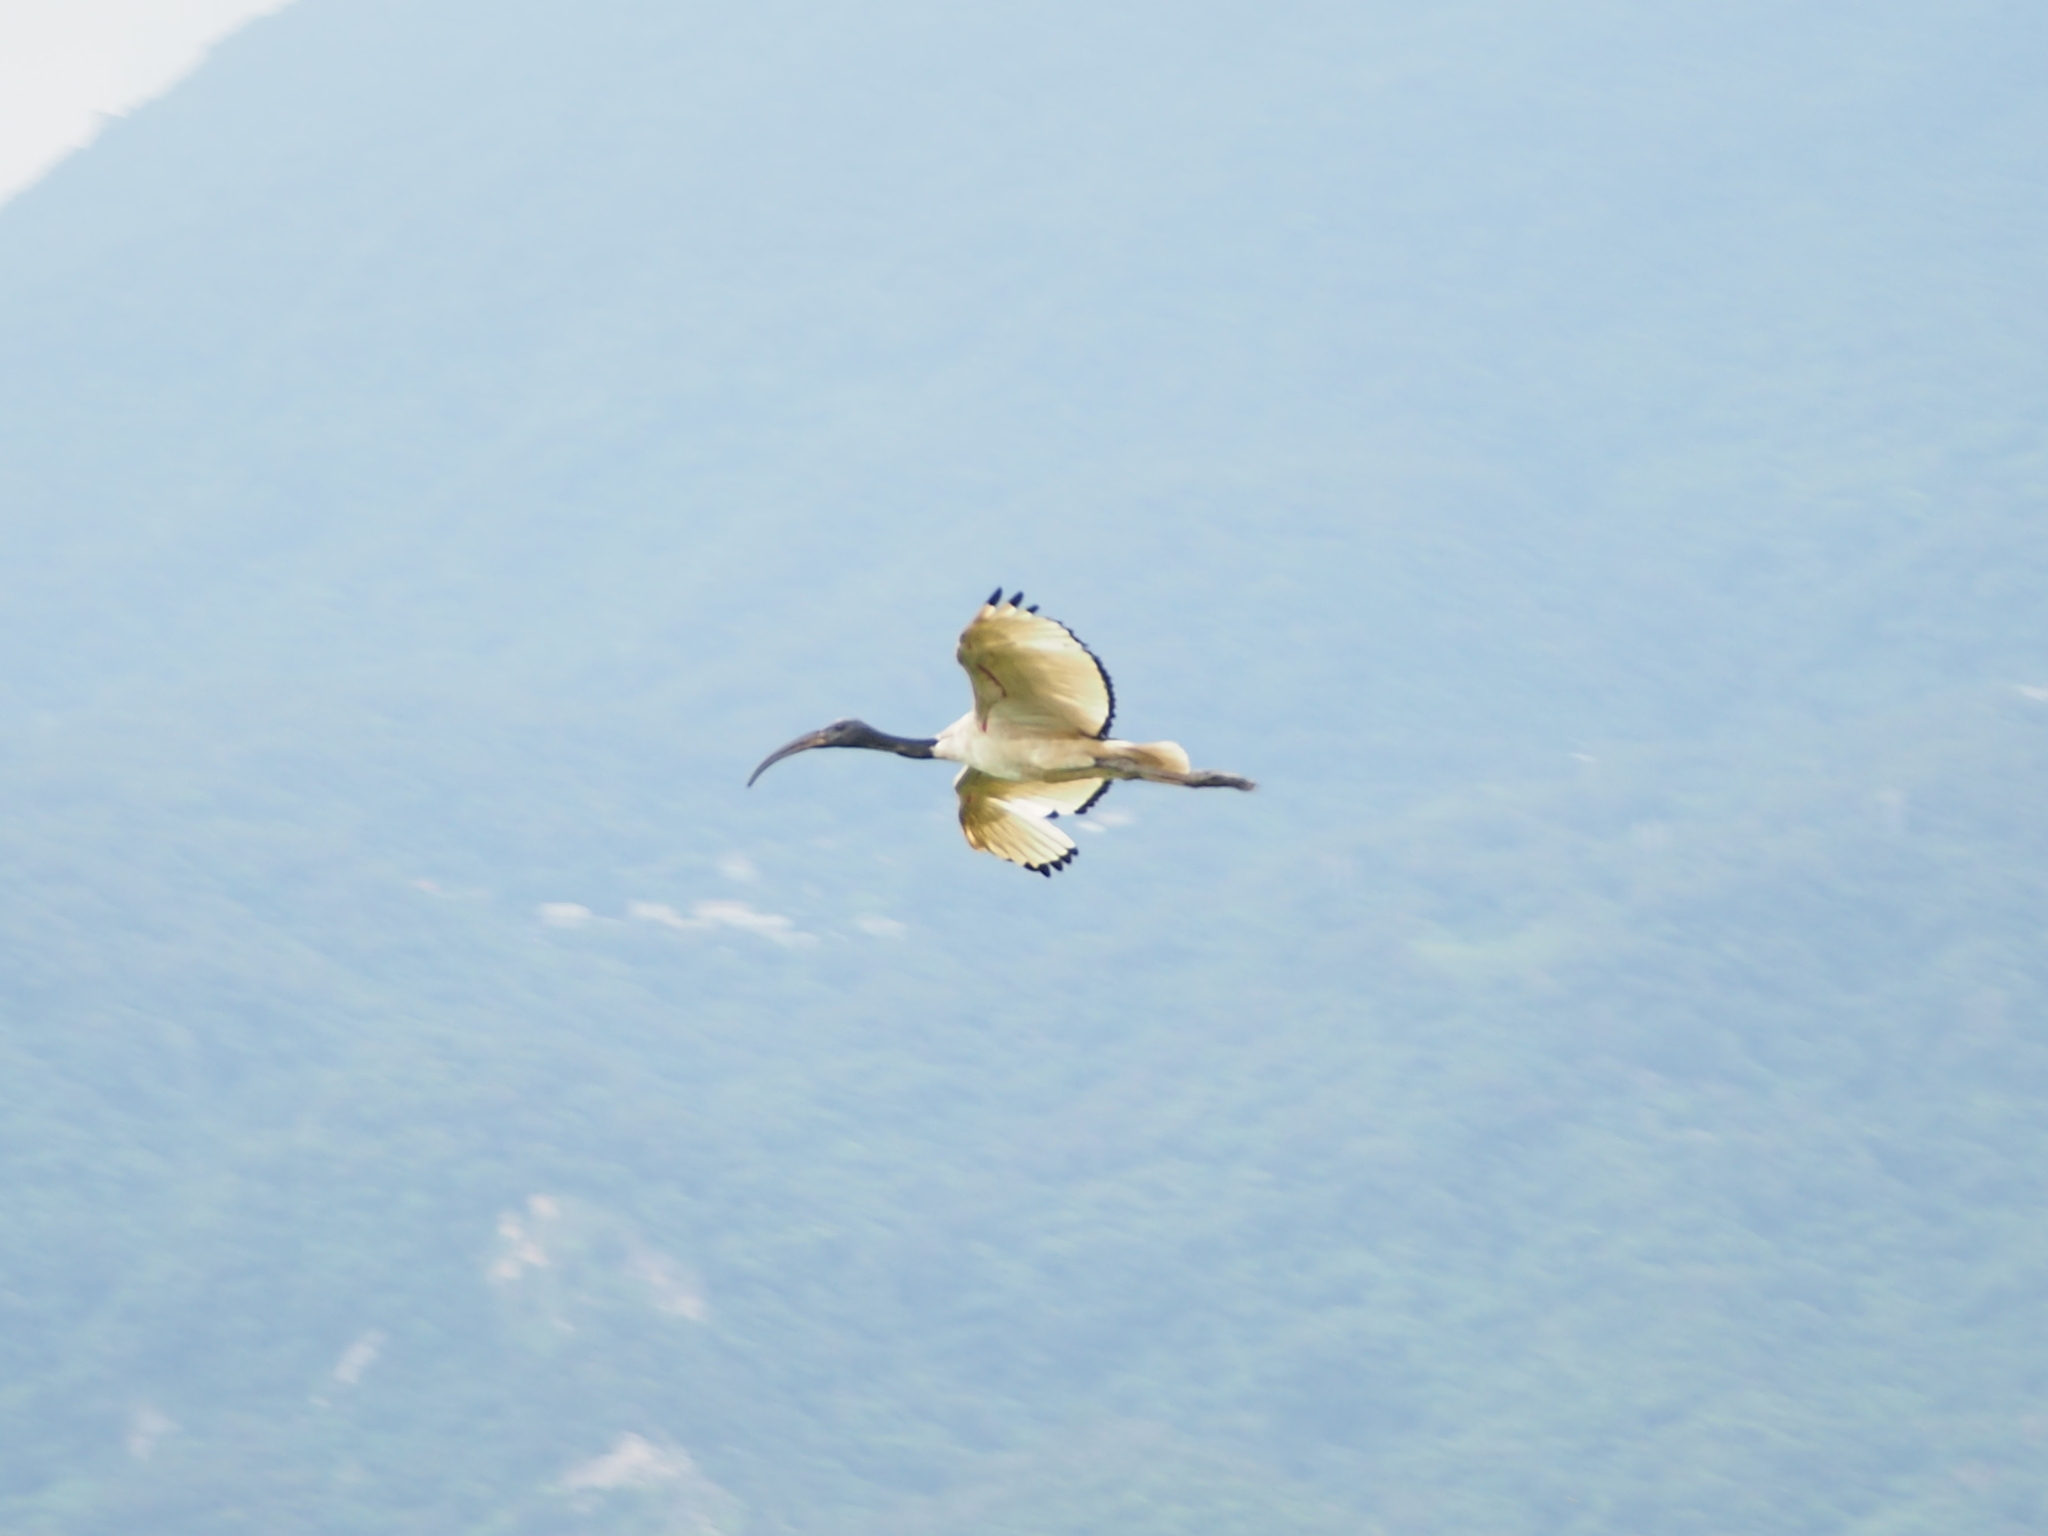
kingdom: Animalia
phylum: Chordata
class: Aves
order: Pelecaniformes
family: Threskiornithidae
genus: Threskiornis
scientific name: Threskiornis aethiopicus
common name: Sacred ibis
